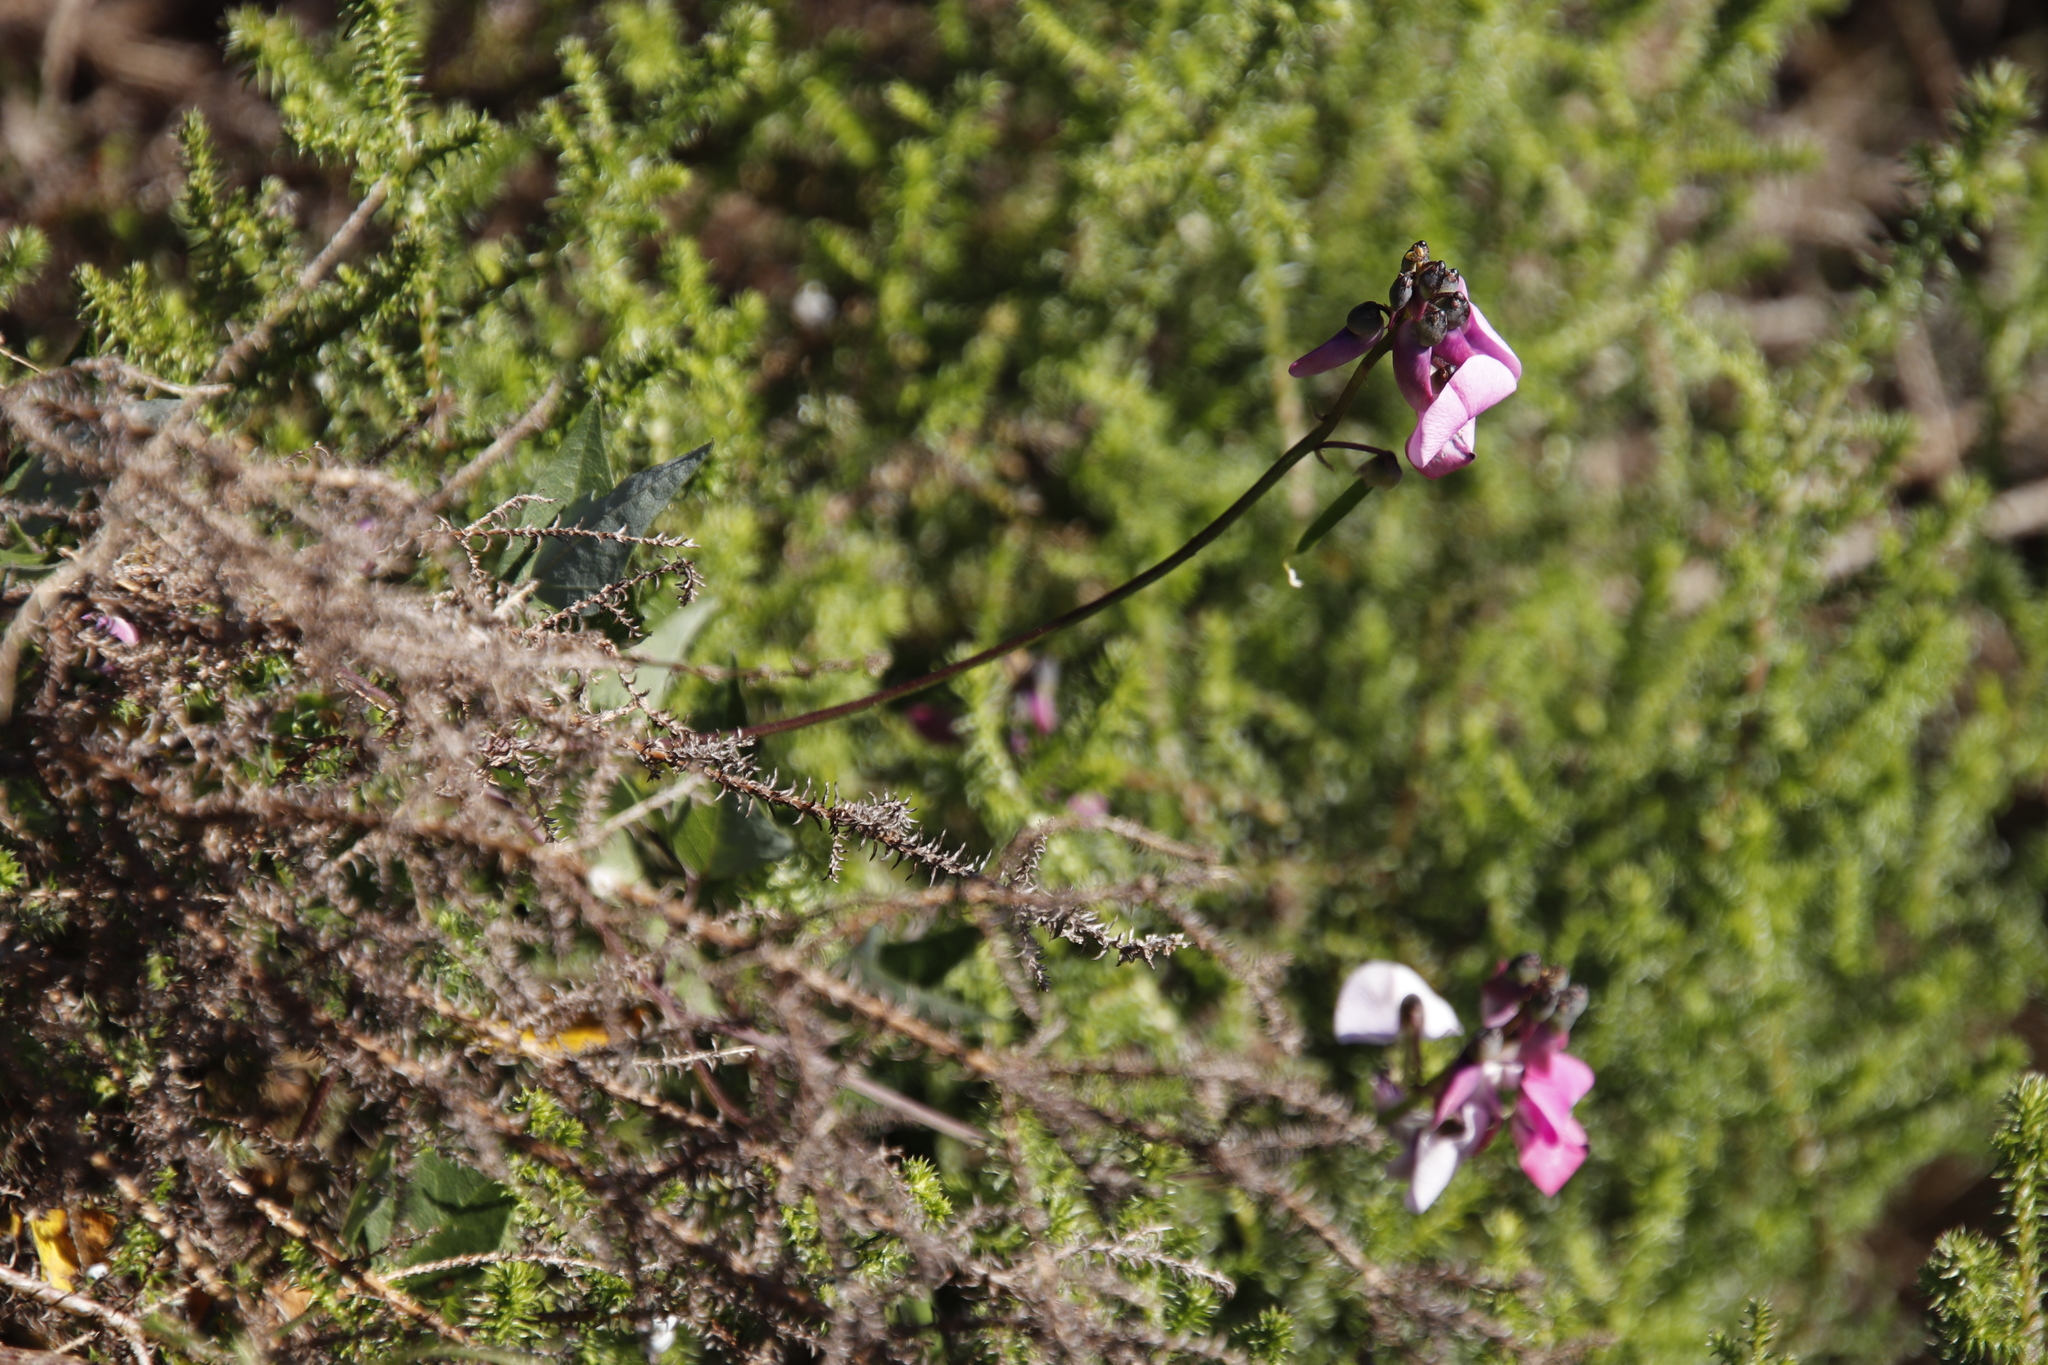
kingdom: Plantae
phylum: Tracheophyta
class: Magnoliopsida
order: Fabales
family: Fabaceae
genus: Dipogon
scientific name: Dipogon lignosus
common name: Okie bean
